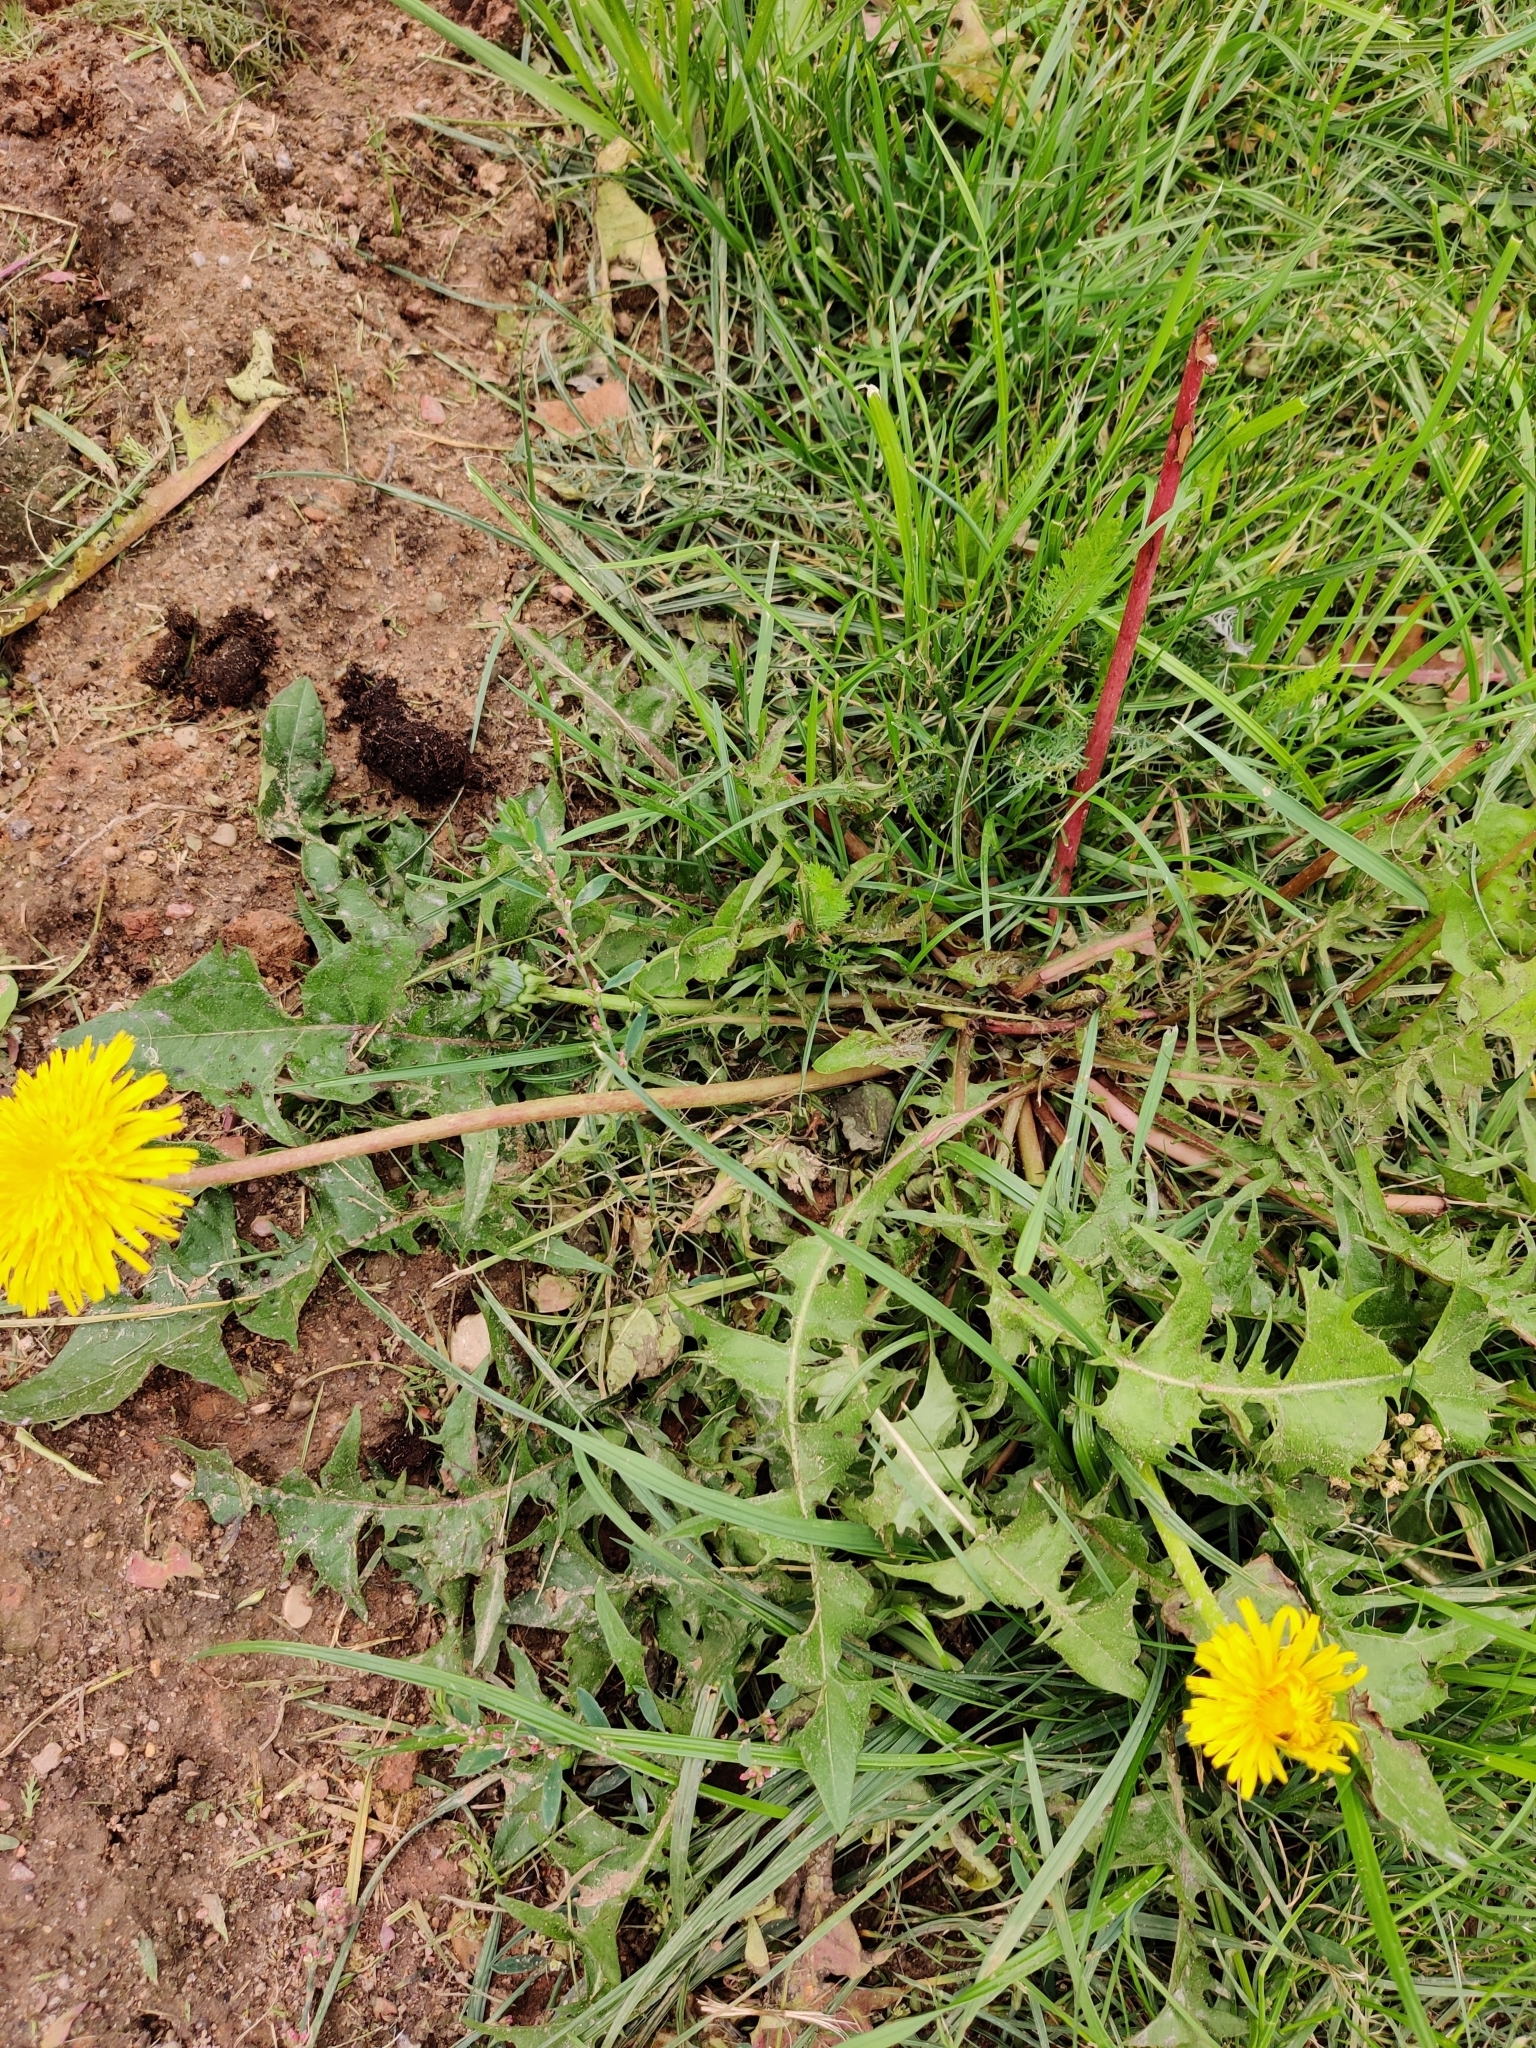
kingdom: Plantae
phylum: Tracheophyta
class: Magnoliopsida
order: Asterales
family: Asteraceae
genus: Taraxacum
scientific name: Taraxacum officinale
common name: Common dandelion
